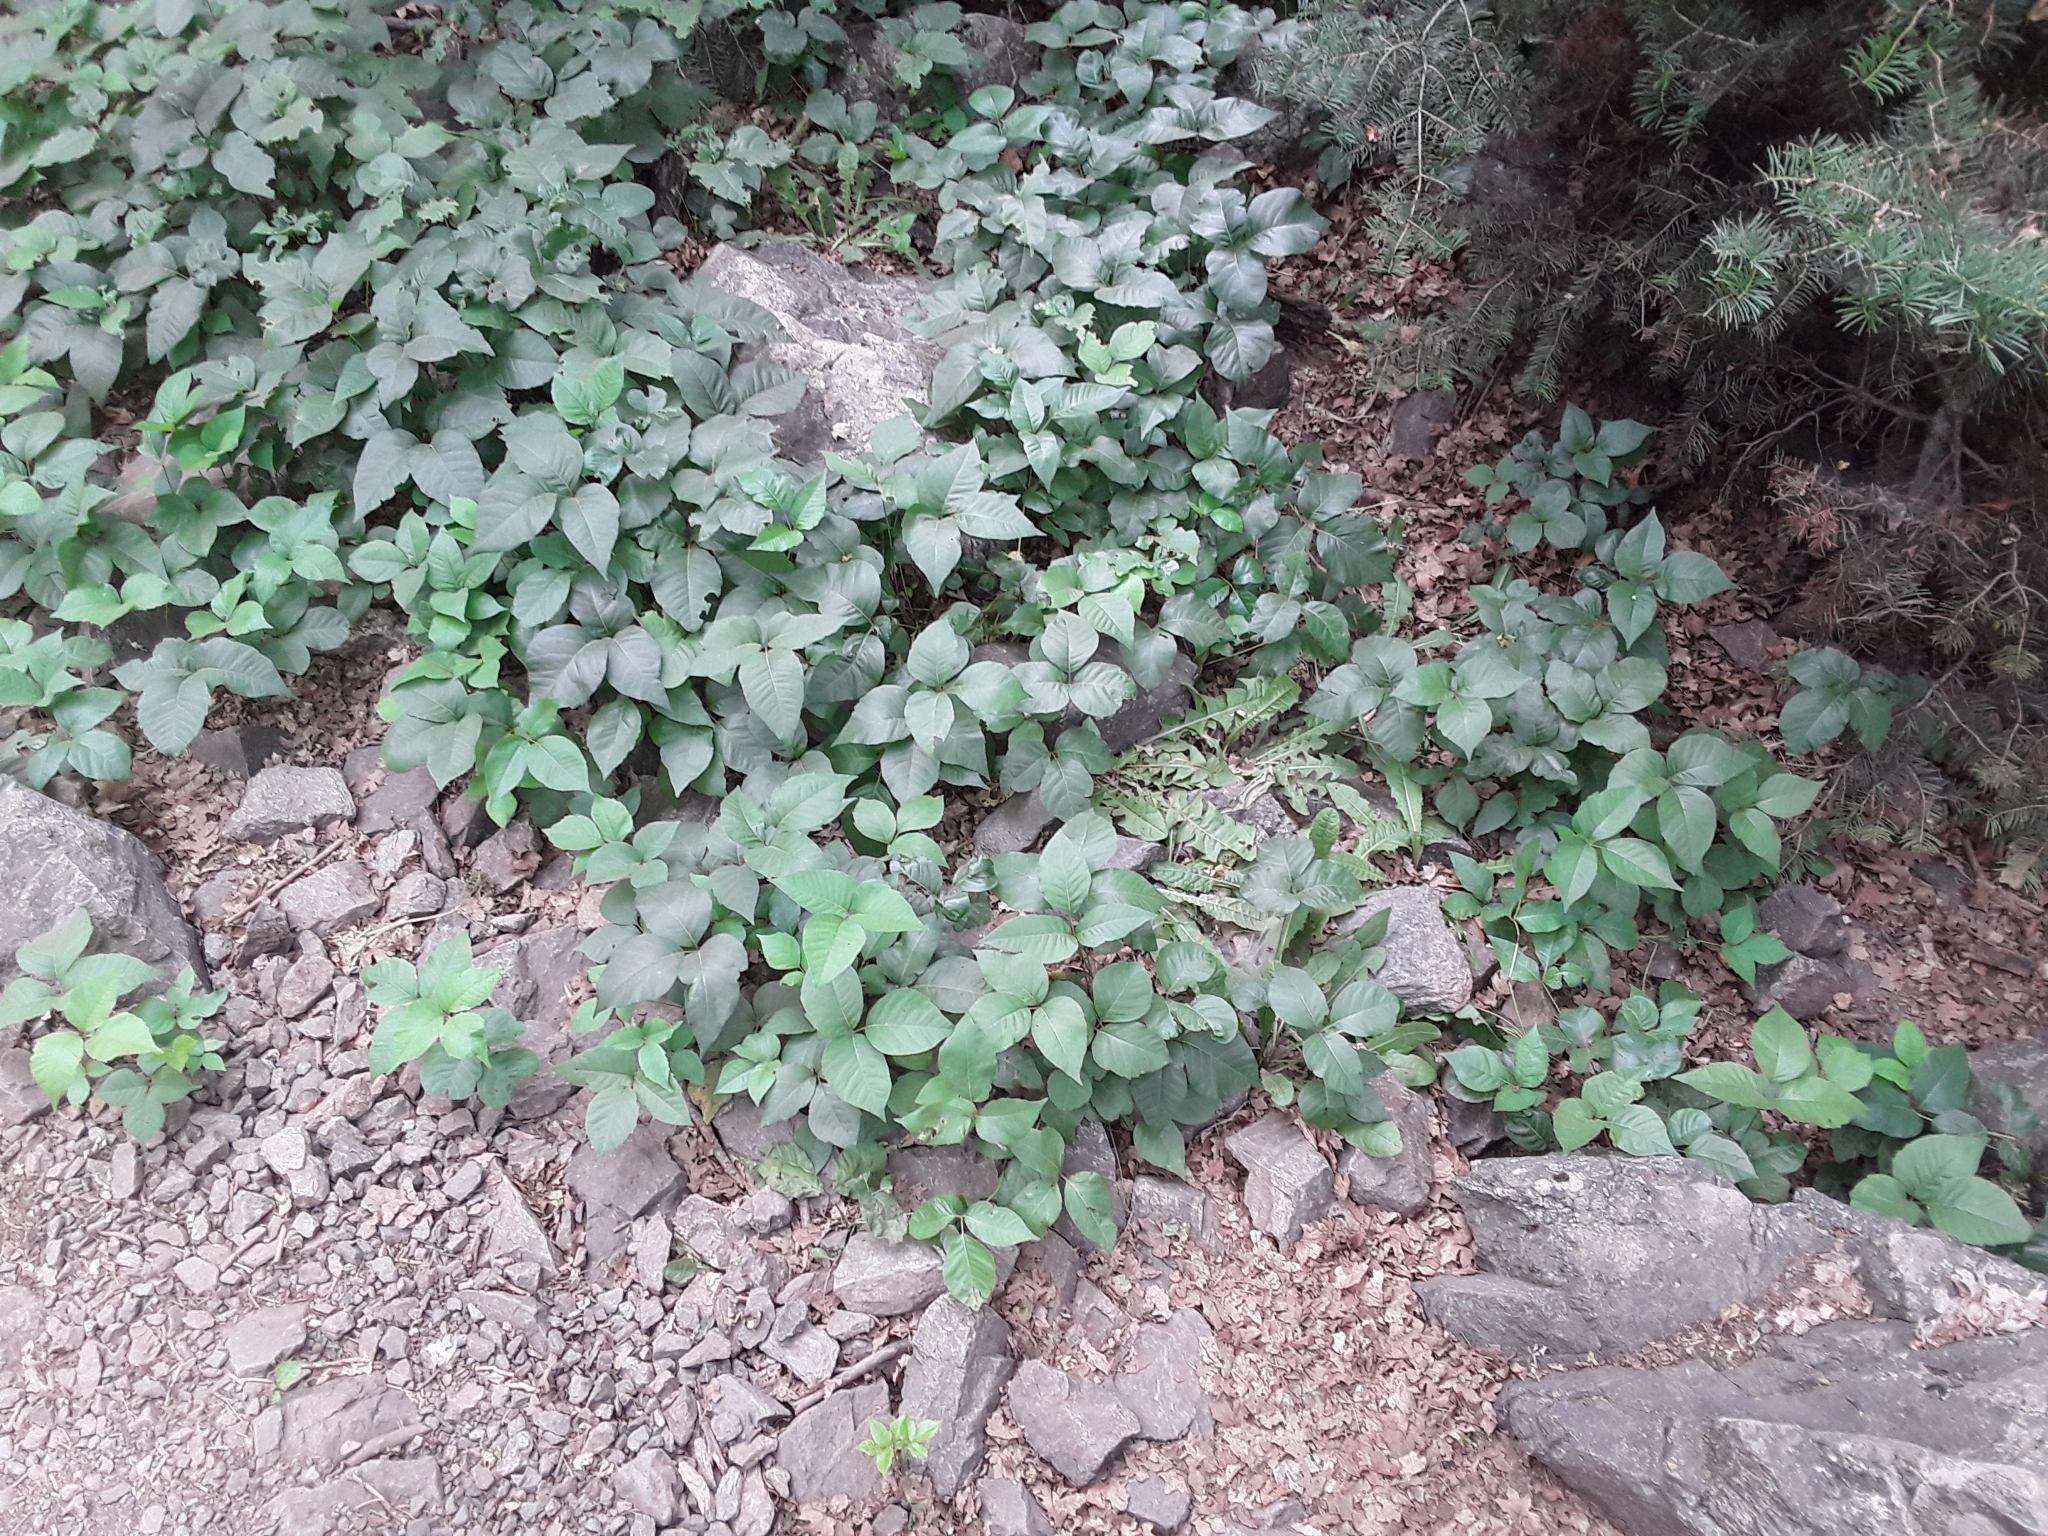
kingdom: Plantae
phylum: Tracheophyta
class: Magnoliopsida
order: Sapindales
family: Anacardiaceae
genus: Toxicodendron
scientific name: Toxicodendron rydbergii
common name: Rydberg's poison-ivy
